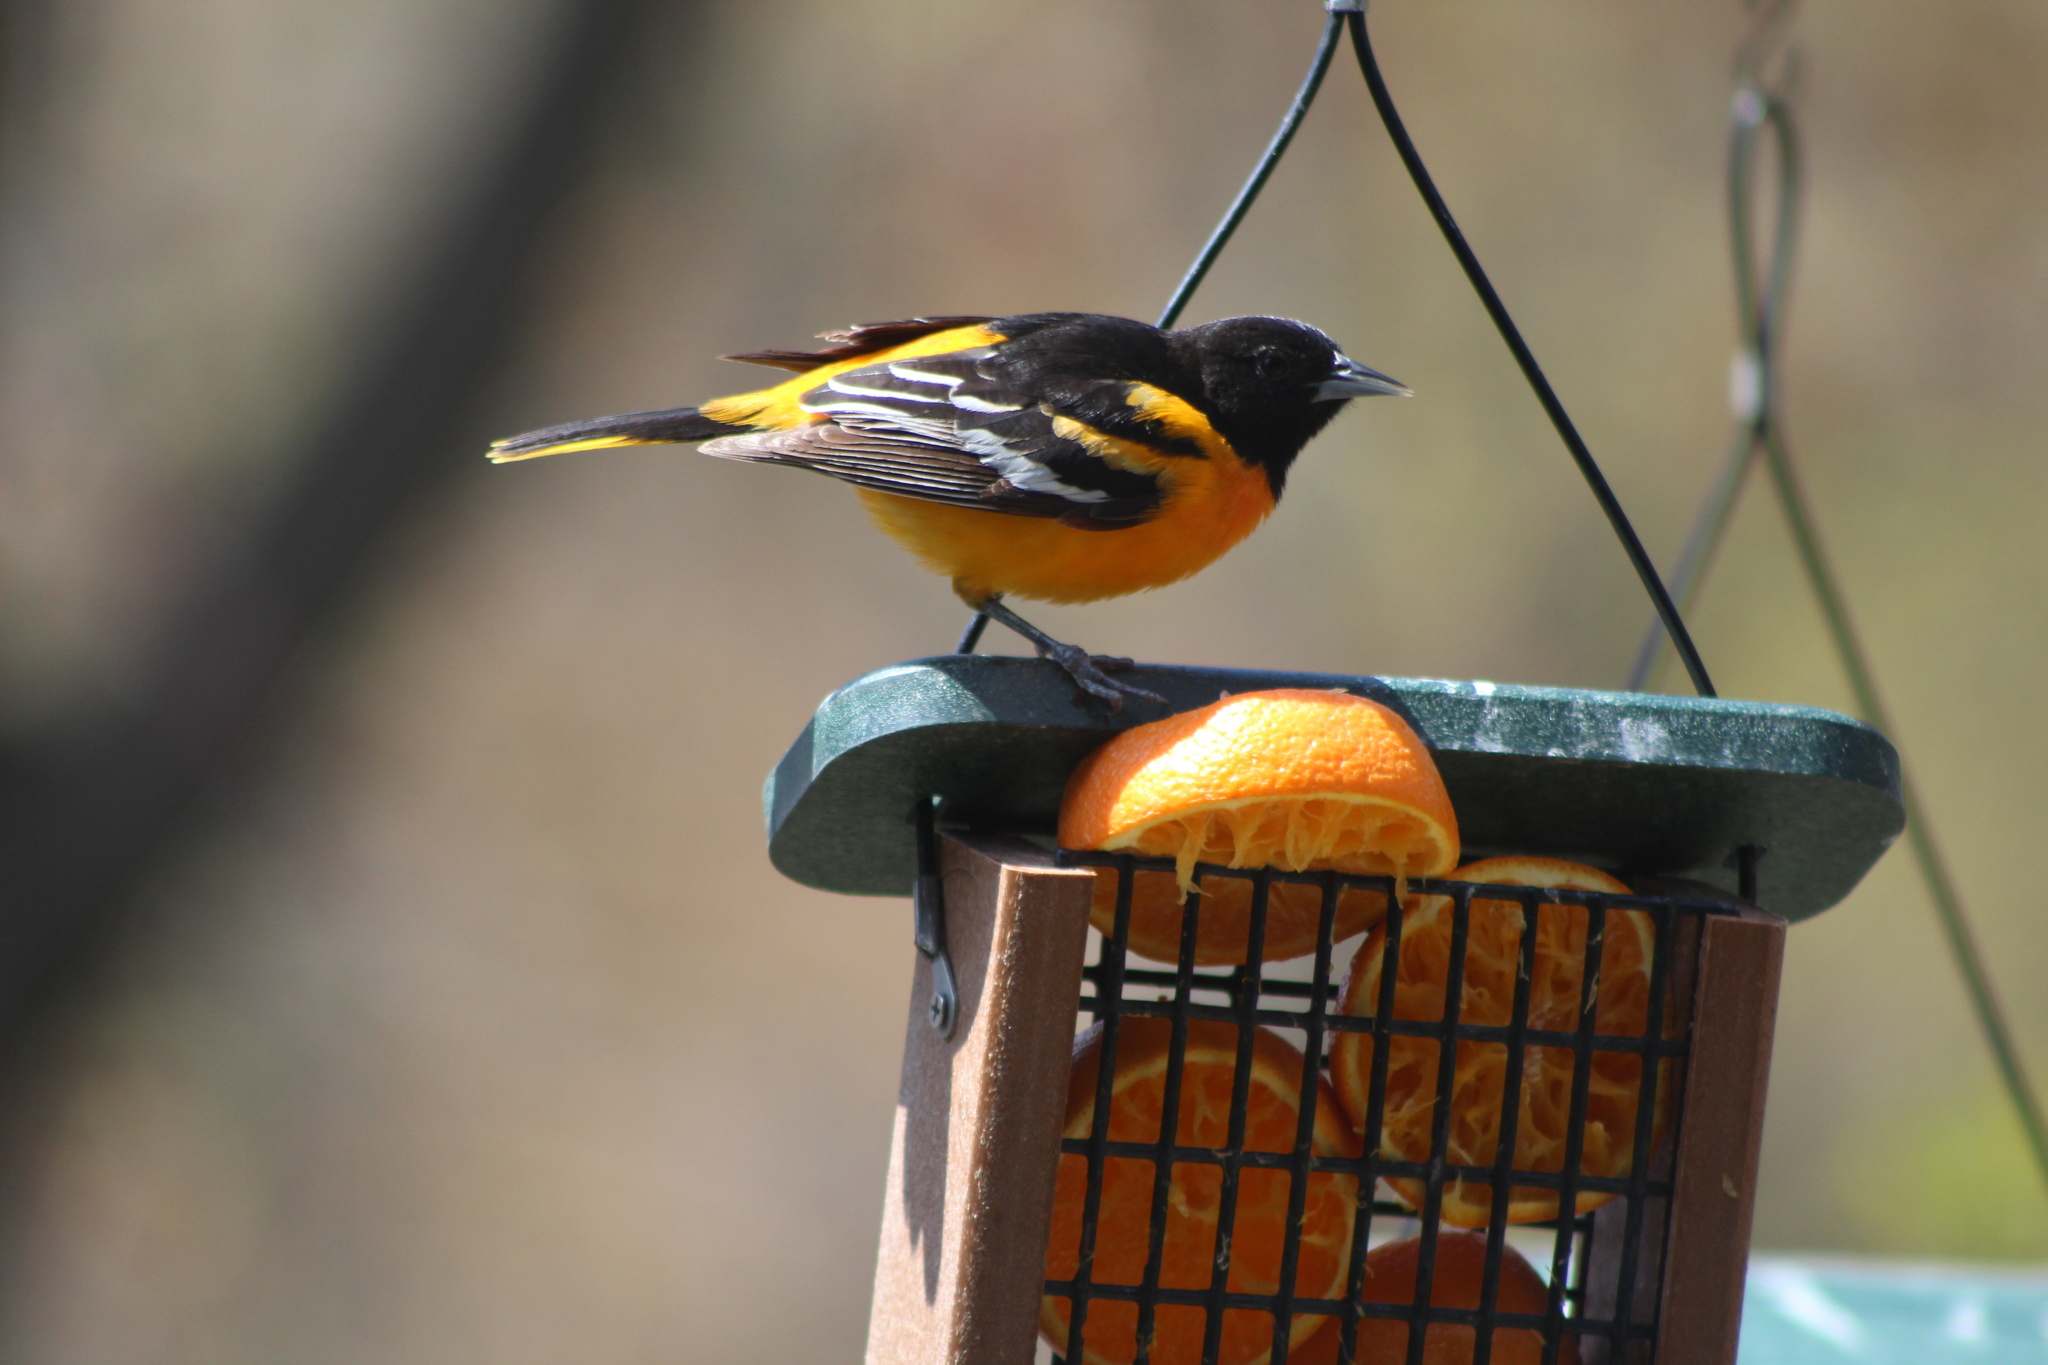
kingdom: Animalia
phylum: Chordata
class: Aves
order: Passeriformes
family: Icteridae
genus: Icterus
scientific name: Icterus galbula
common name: Baltimore oriole
